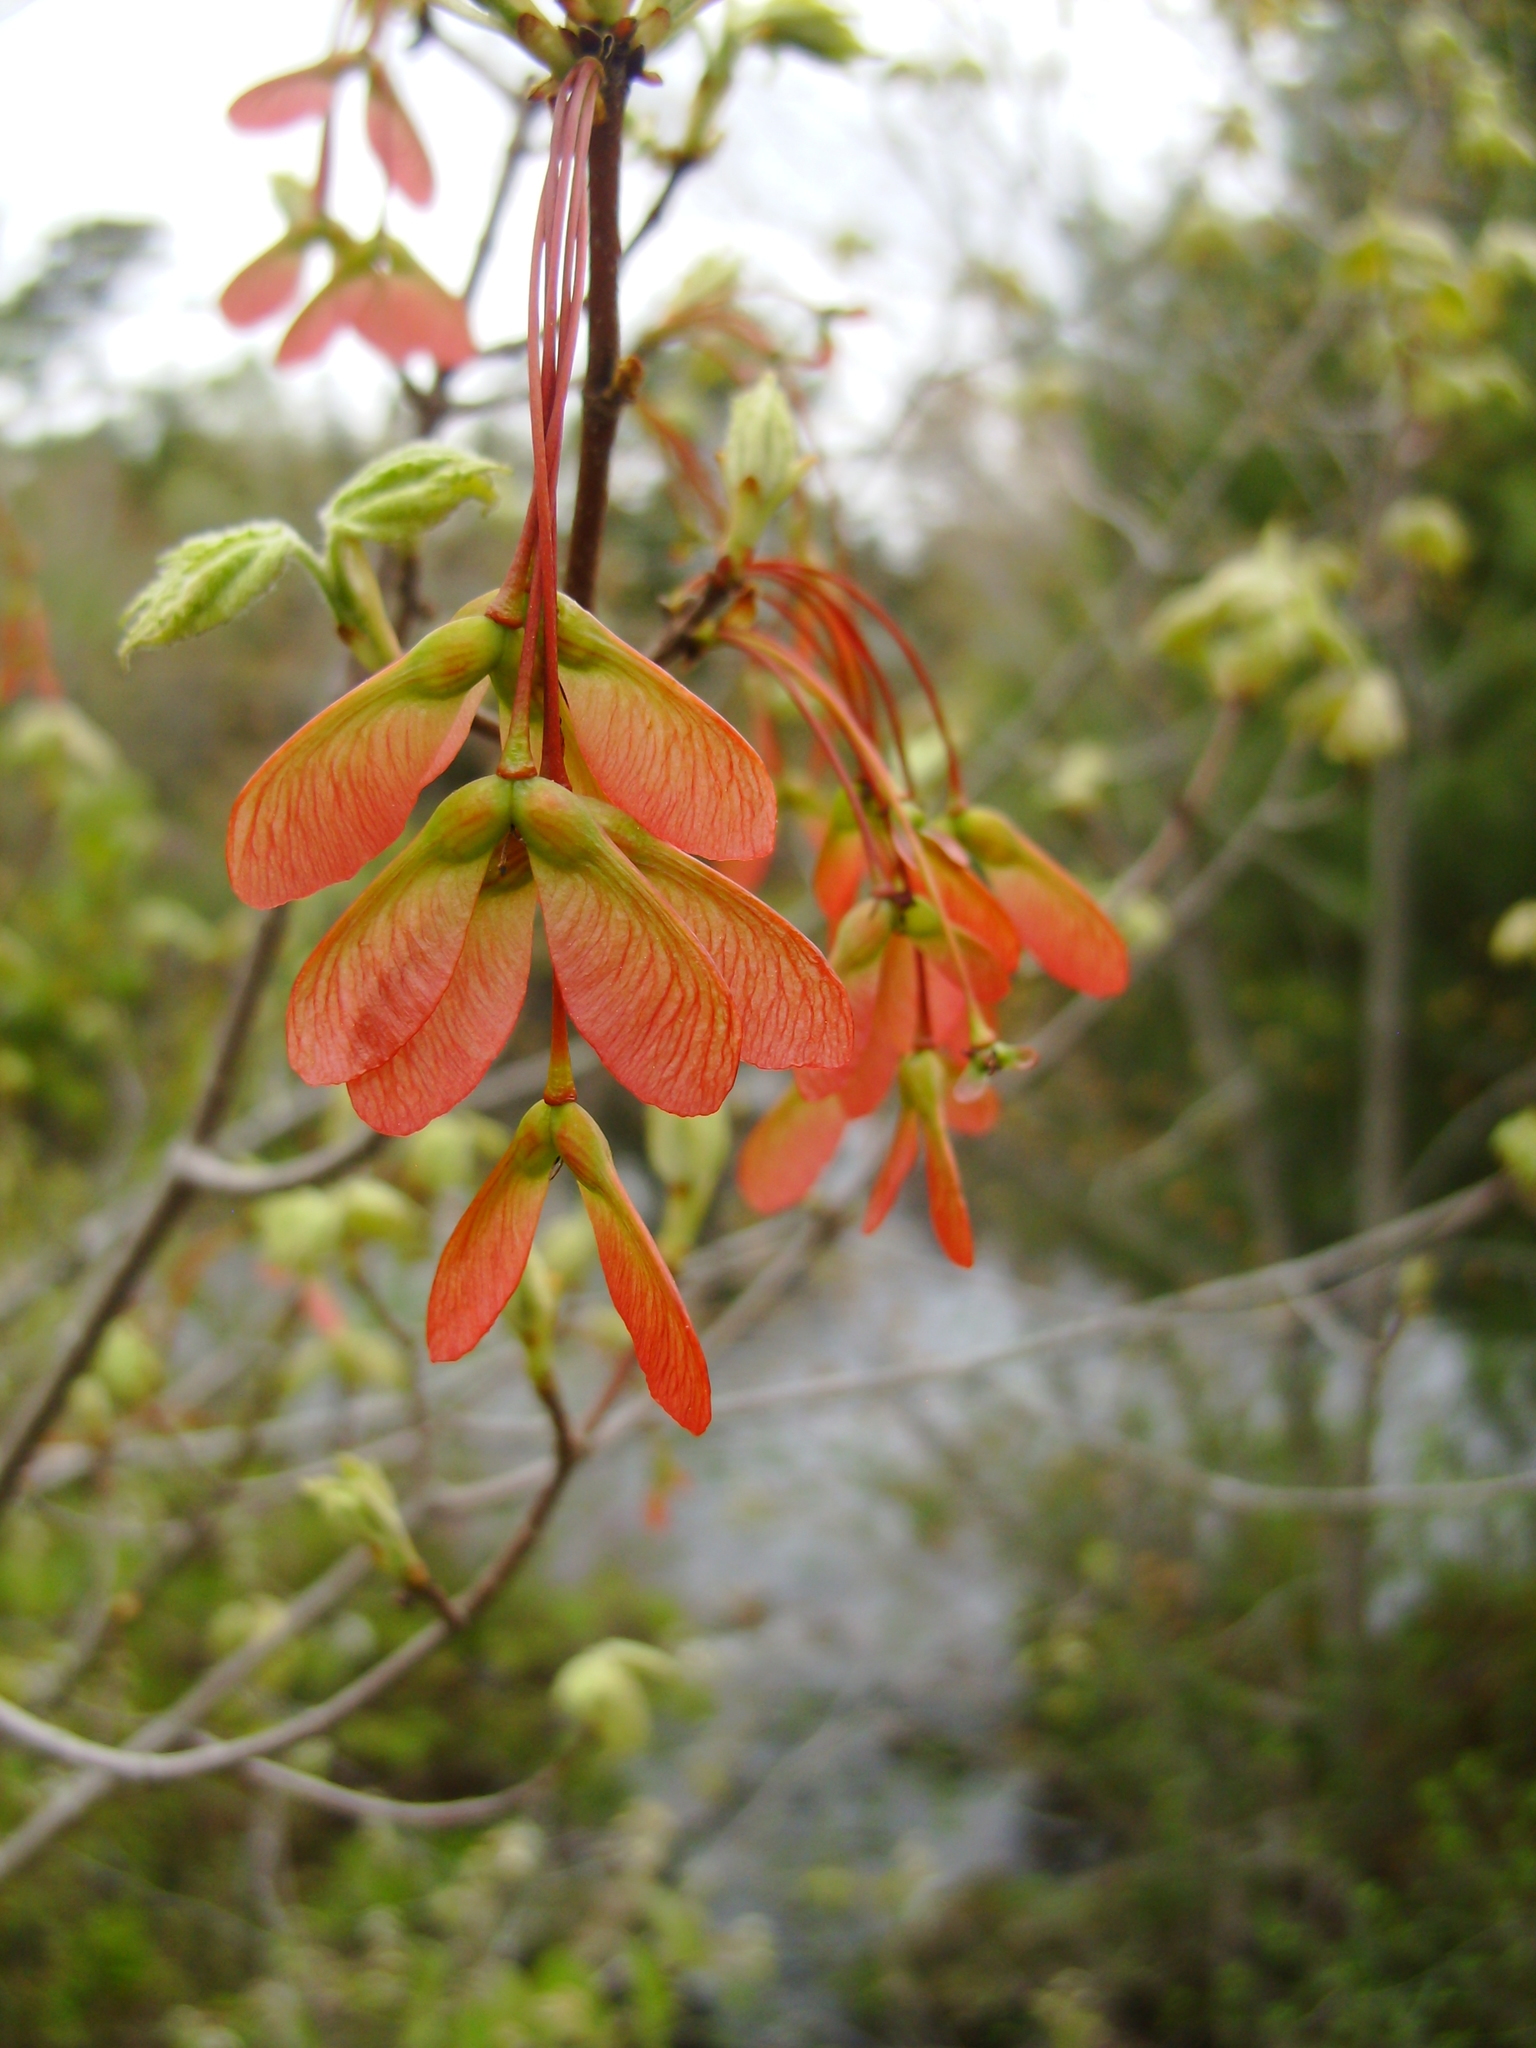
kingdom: Plantae
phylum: Tracheophyta
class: Magnoliopsida
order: Sapindales
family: Sapindaceae
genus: Acer
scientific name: Acer rubrum
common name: Red maple
